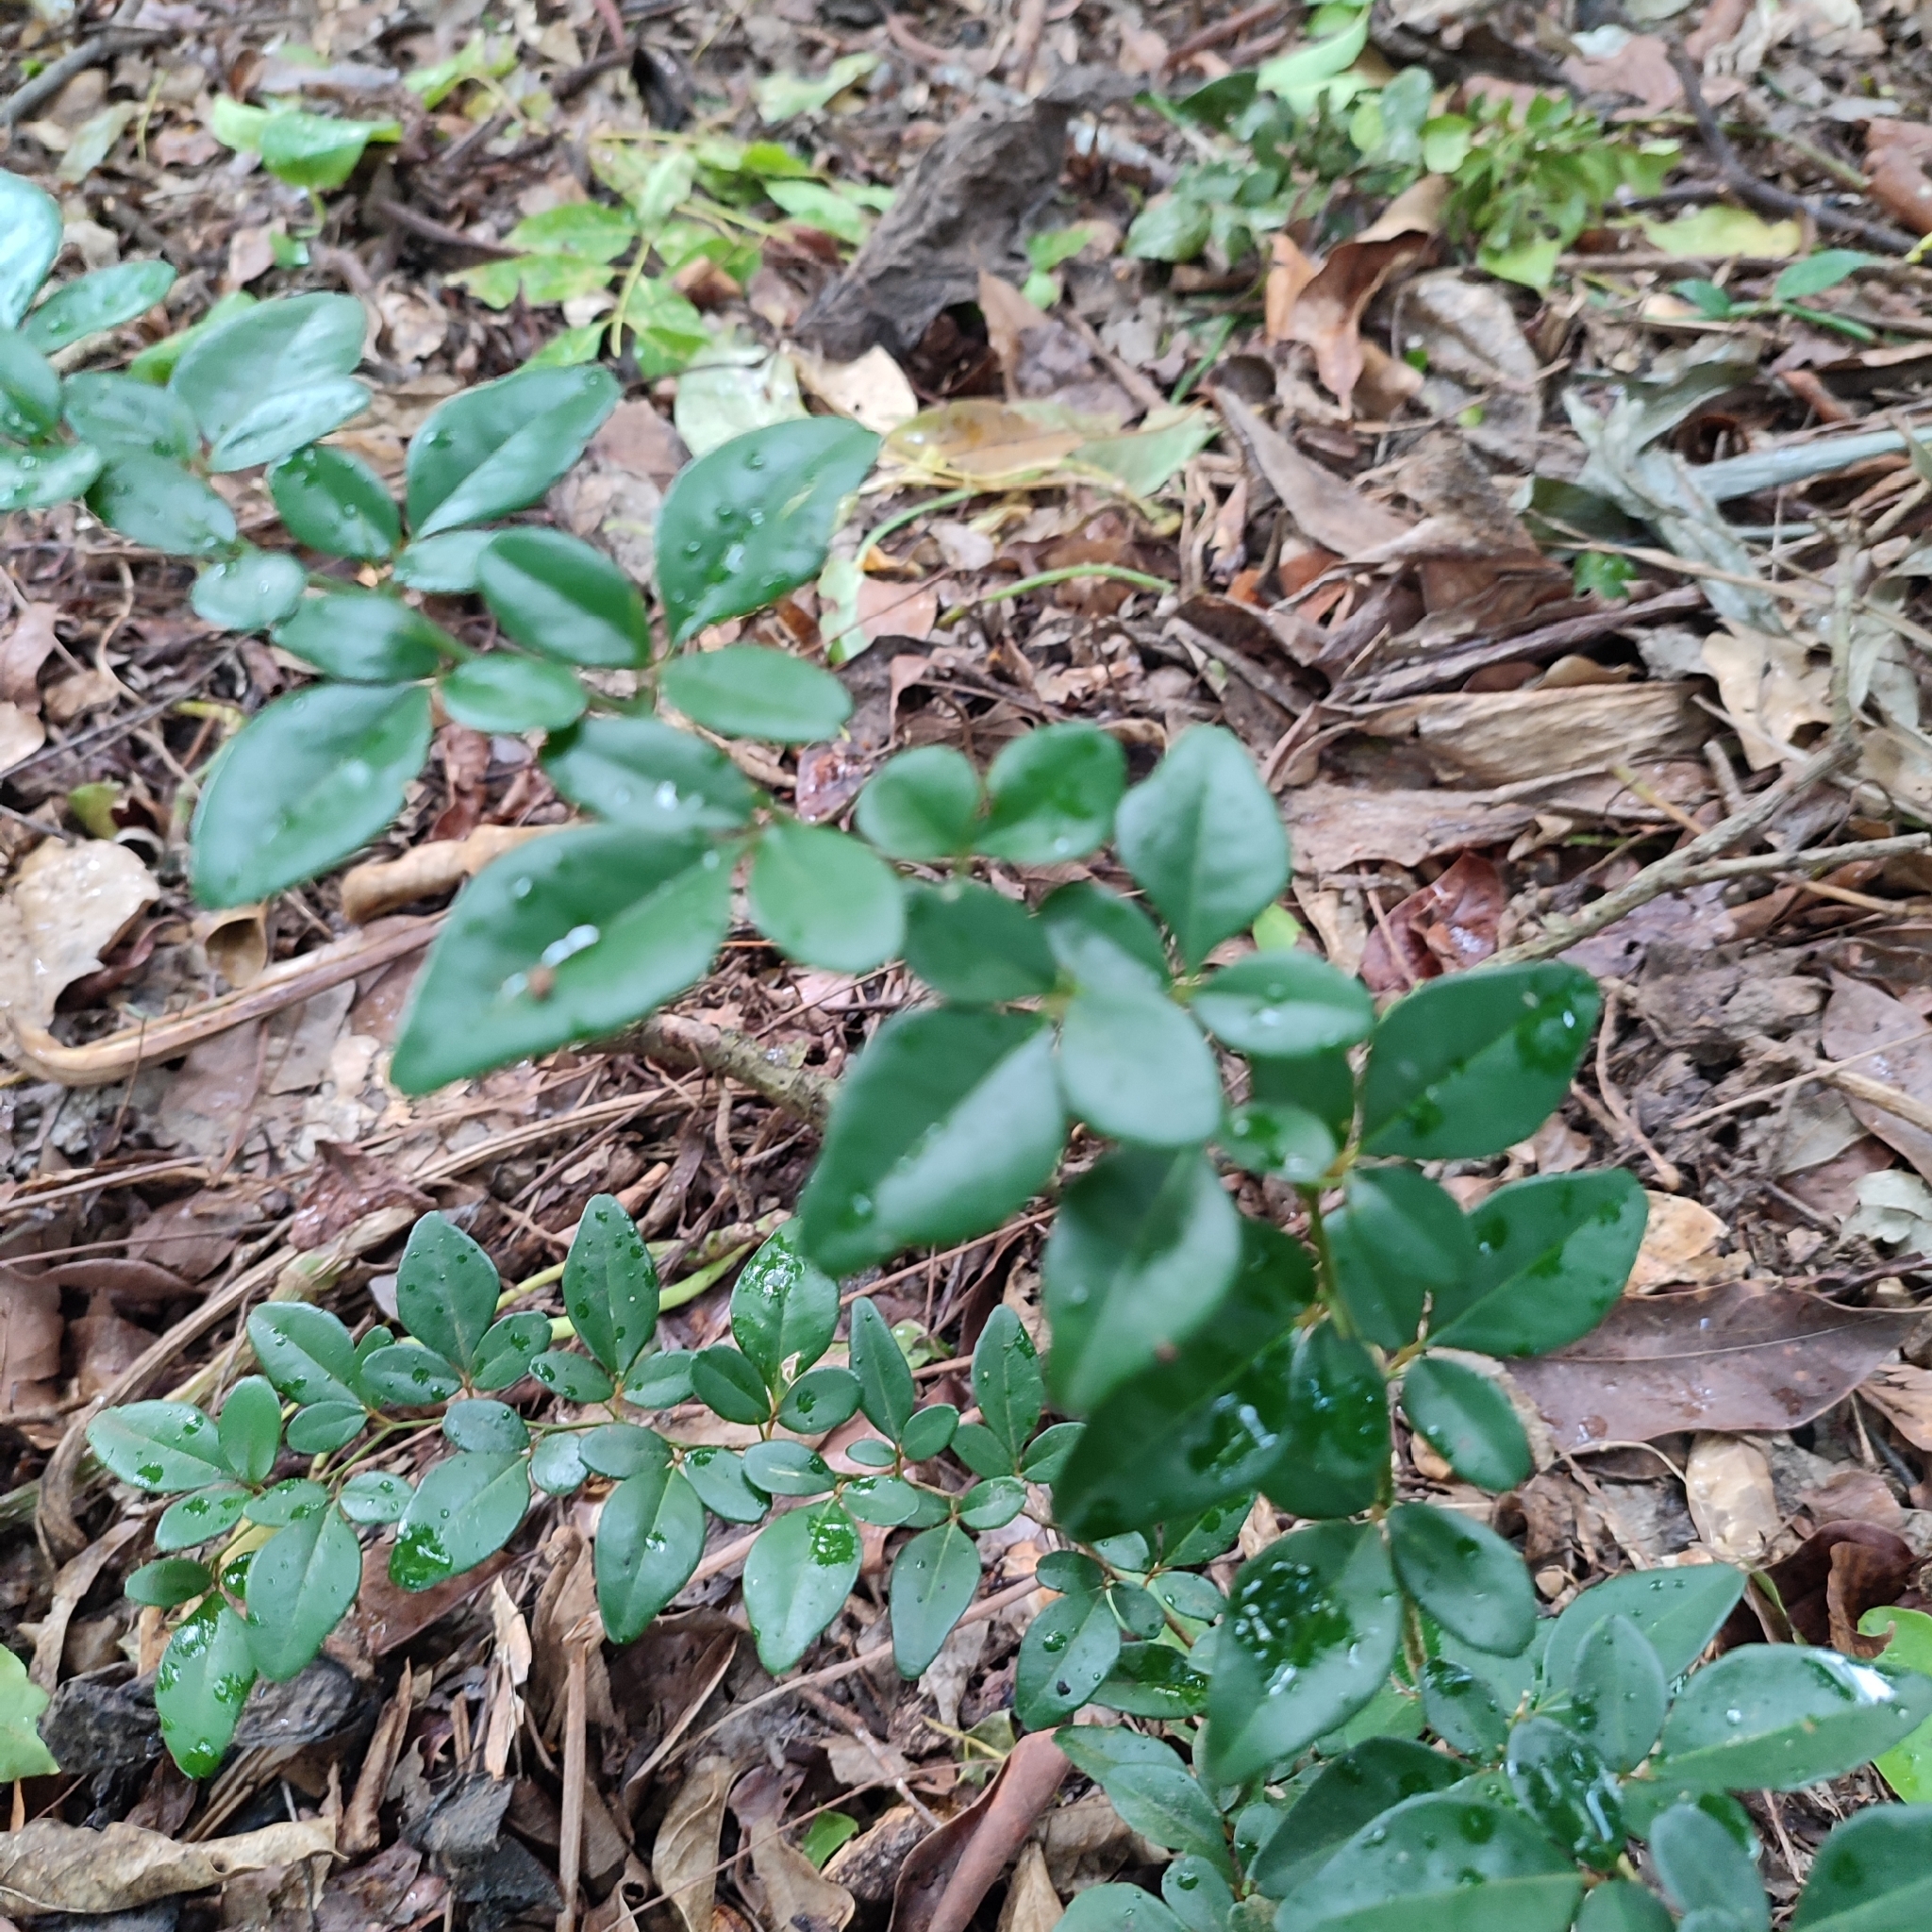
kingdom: Plantae
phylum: Tracheophyta
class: Magnoliopsida
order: Sapindales
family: Rutaceae
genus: Triphasia
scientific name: Triphasia trifolia
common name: Limeberry
